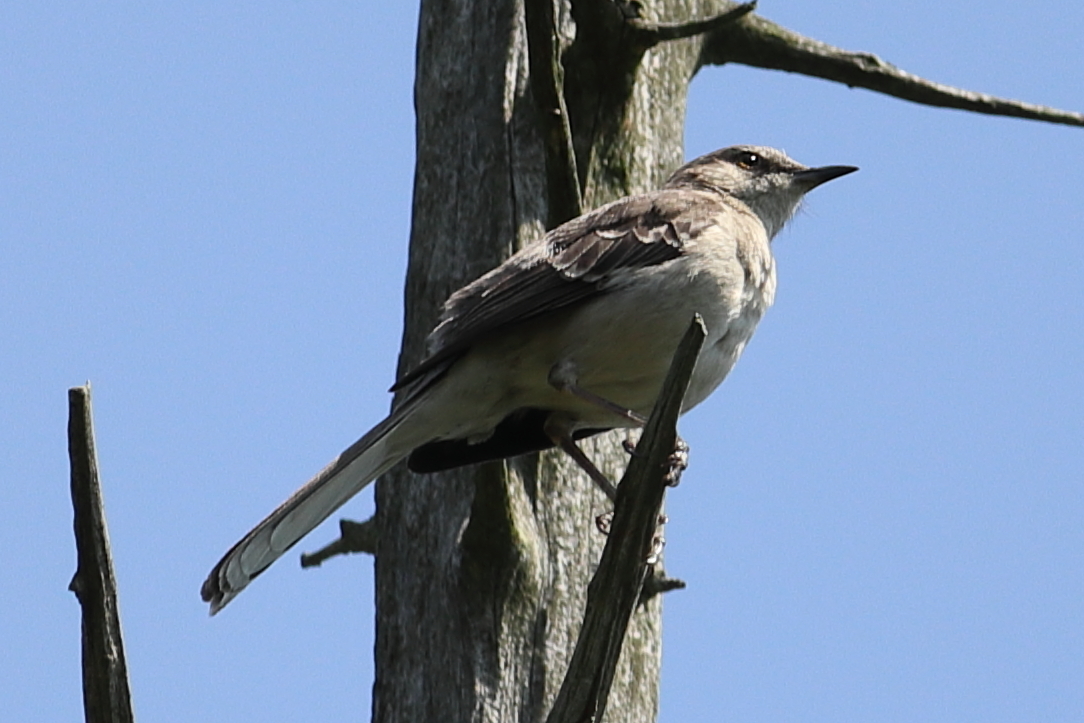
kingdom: Animalia
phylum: Chordata
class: Aves
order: Passeriformes
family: Mimidae
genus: Mimus
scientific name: Mimus polyglottos
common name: Northern mockingbird
